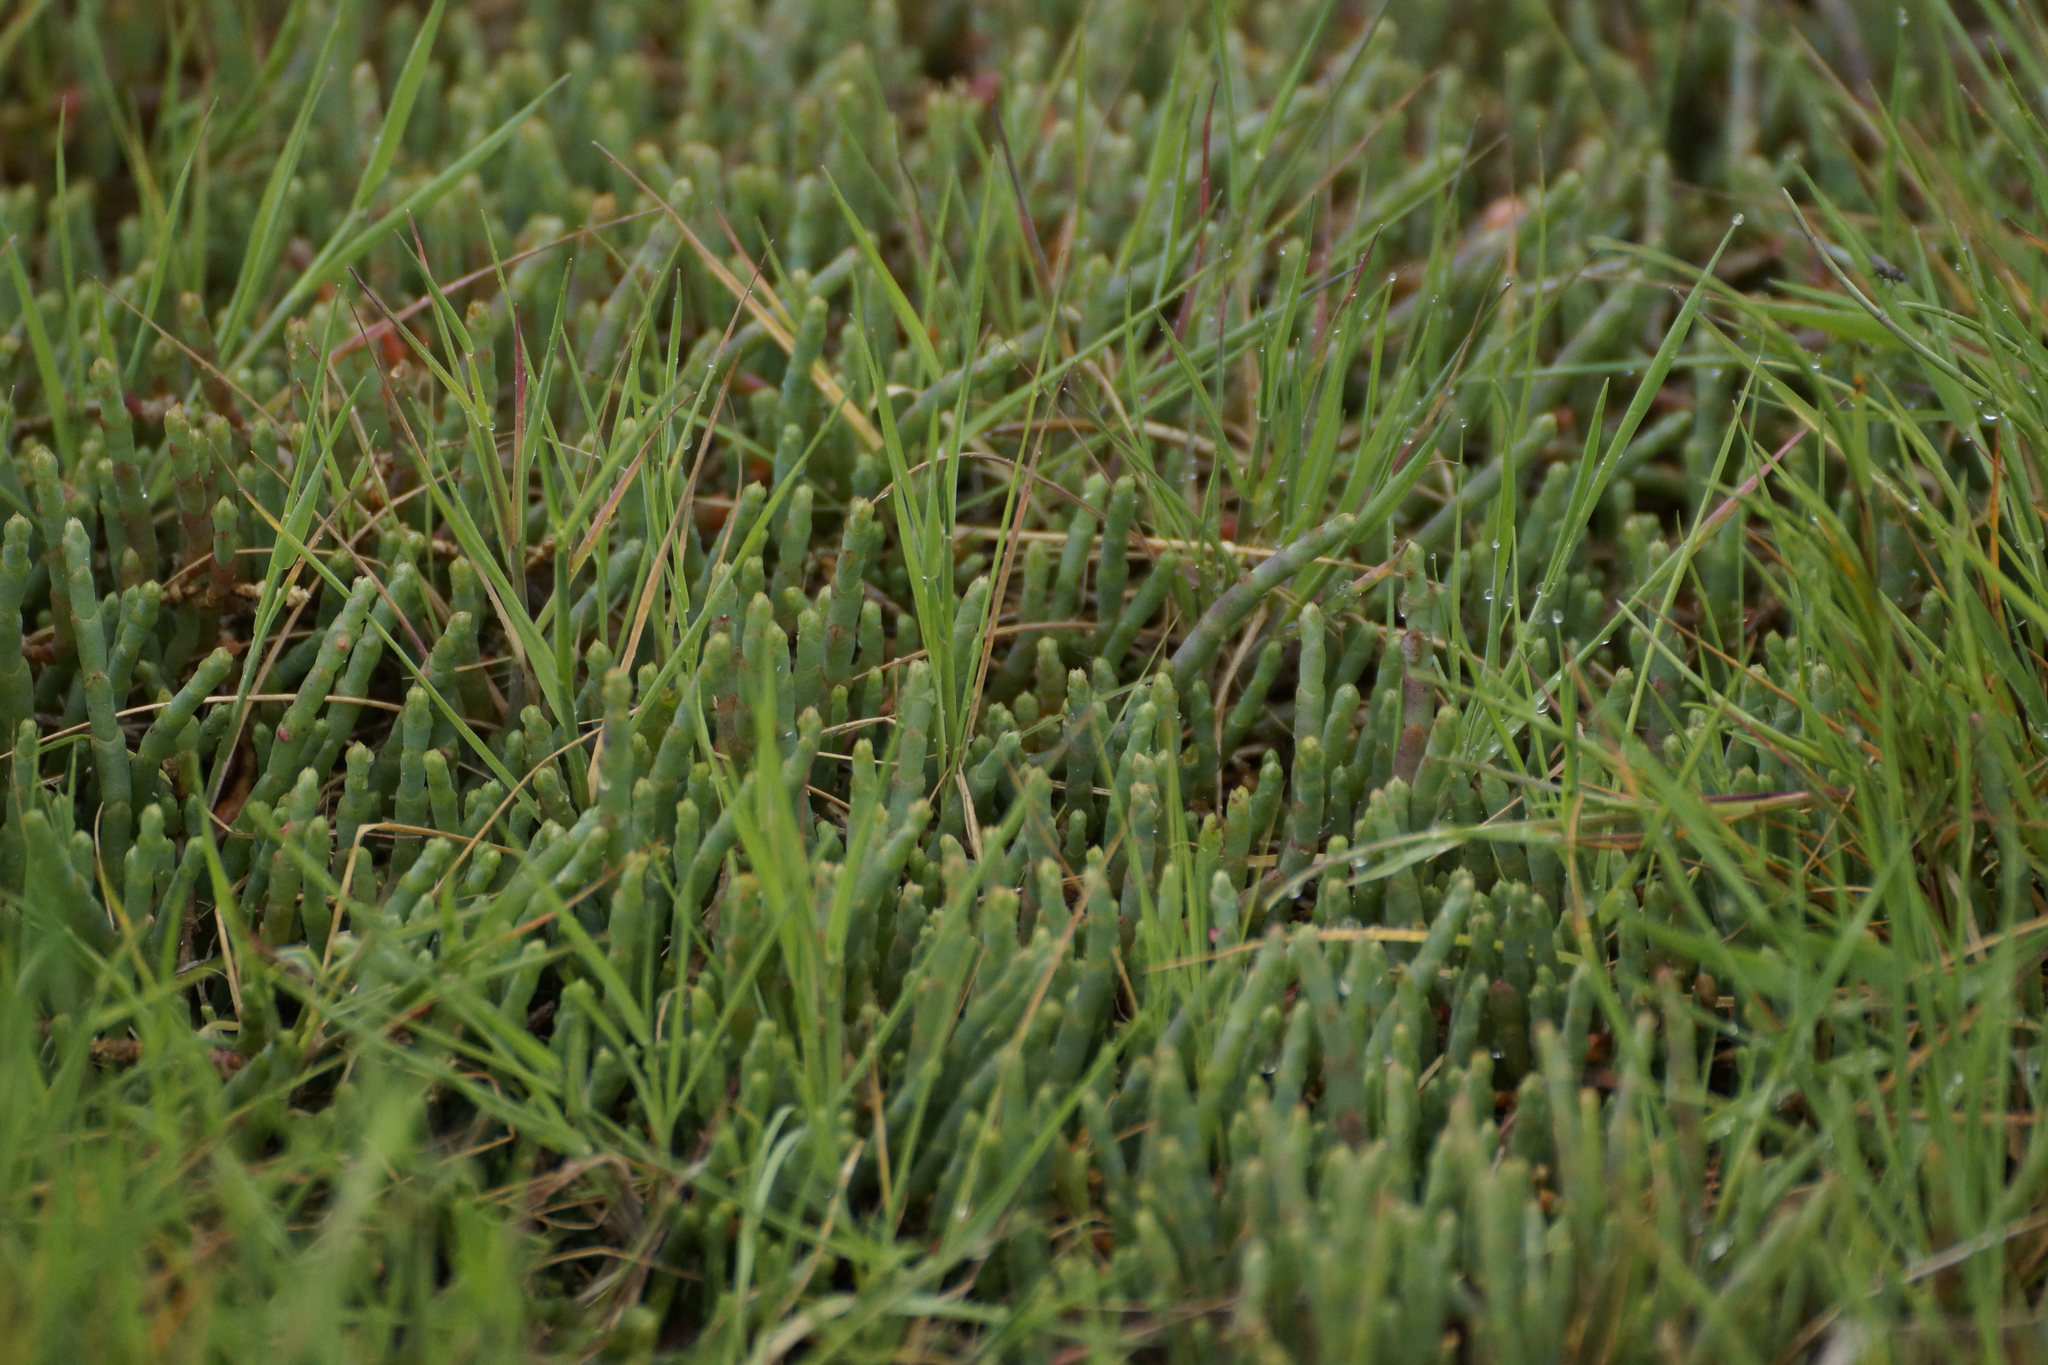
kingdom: Plantae
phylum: Tracheophyta
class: Magnoliopsida
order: Caryophyllales
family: Amaranthaceae
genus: Salicornia
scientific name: Salicornia quinqueflora
